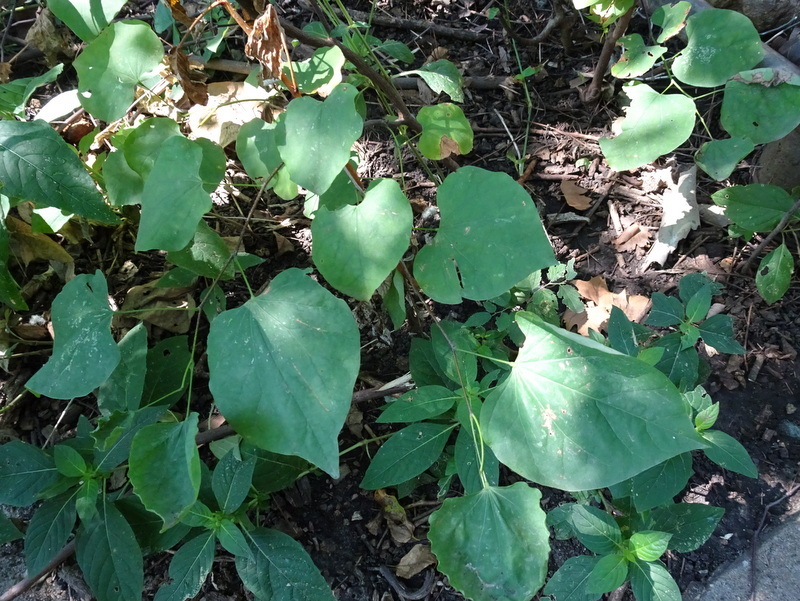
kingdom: Plantae
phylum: Tracheophyta
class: Magnoliopsida
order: Fabales
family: Fabaceae
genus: Cercis
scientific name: Cercis canadensis
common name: Eastern redbud
